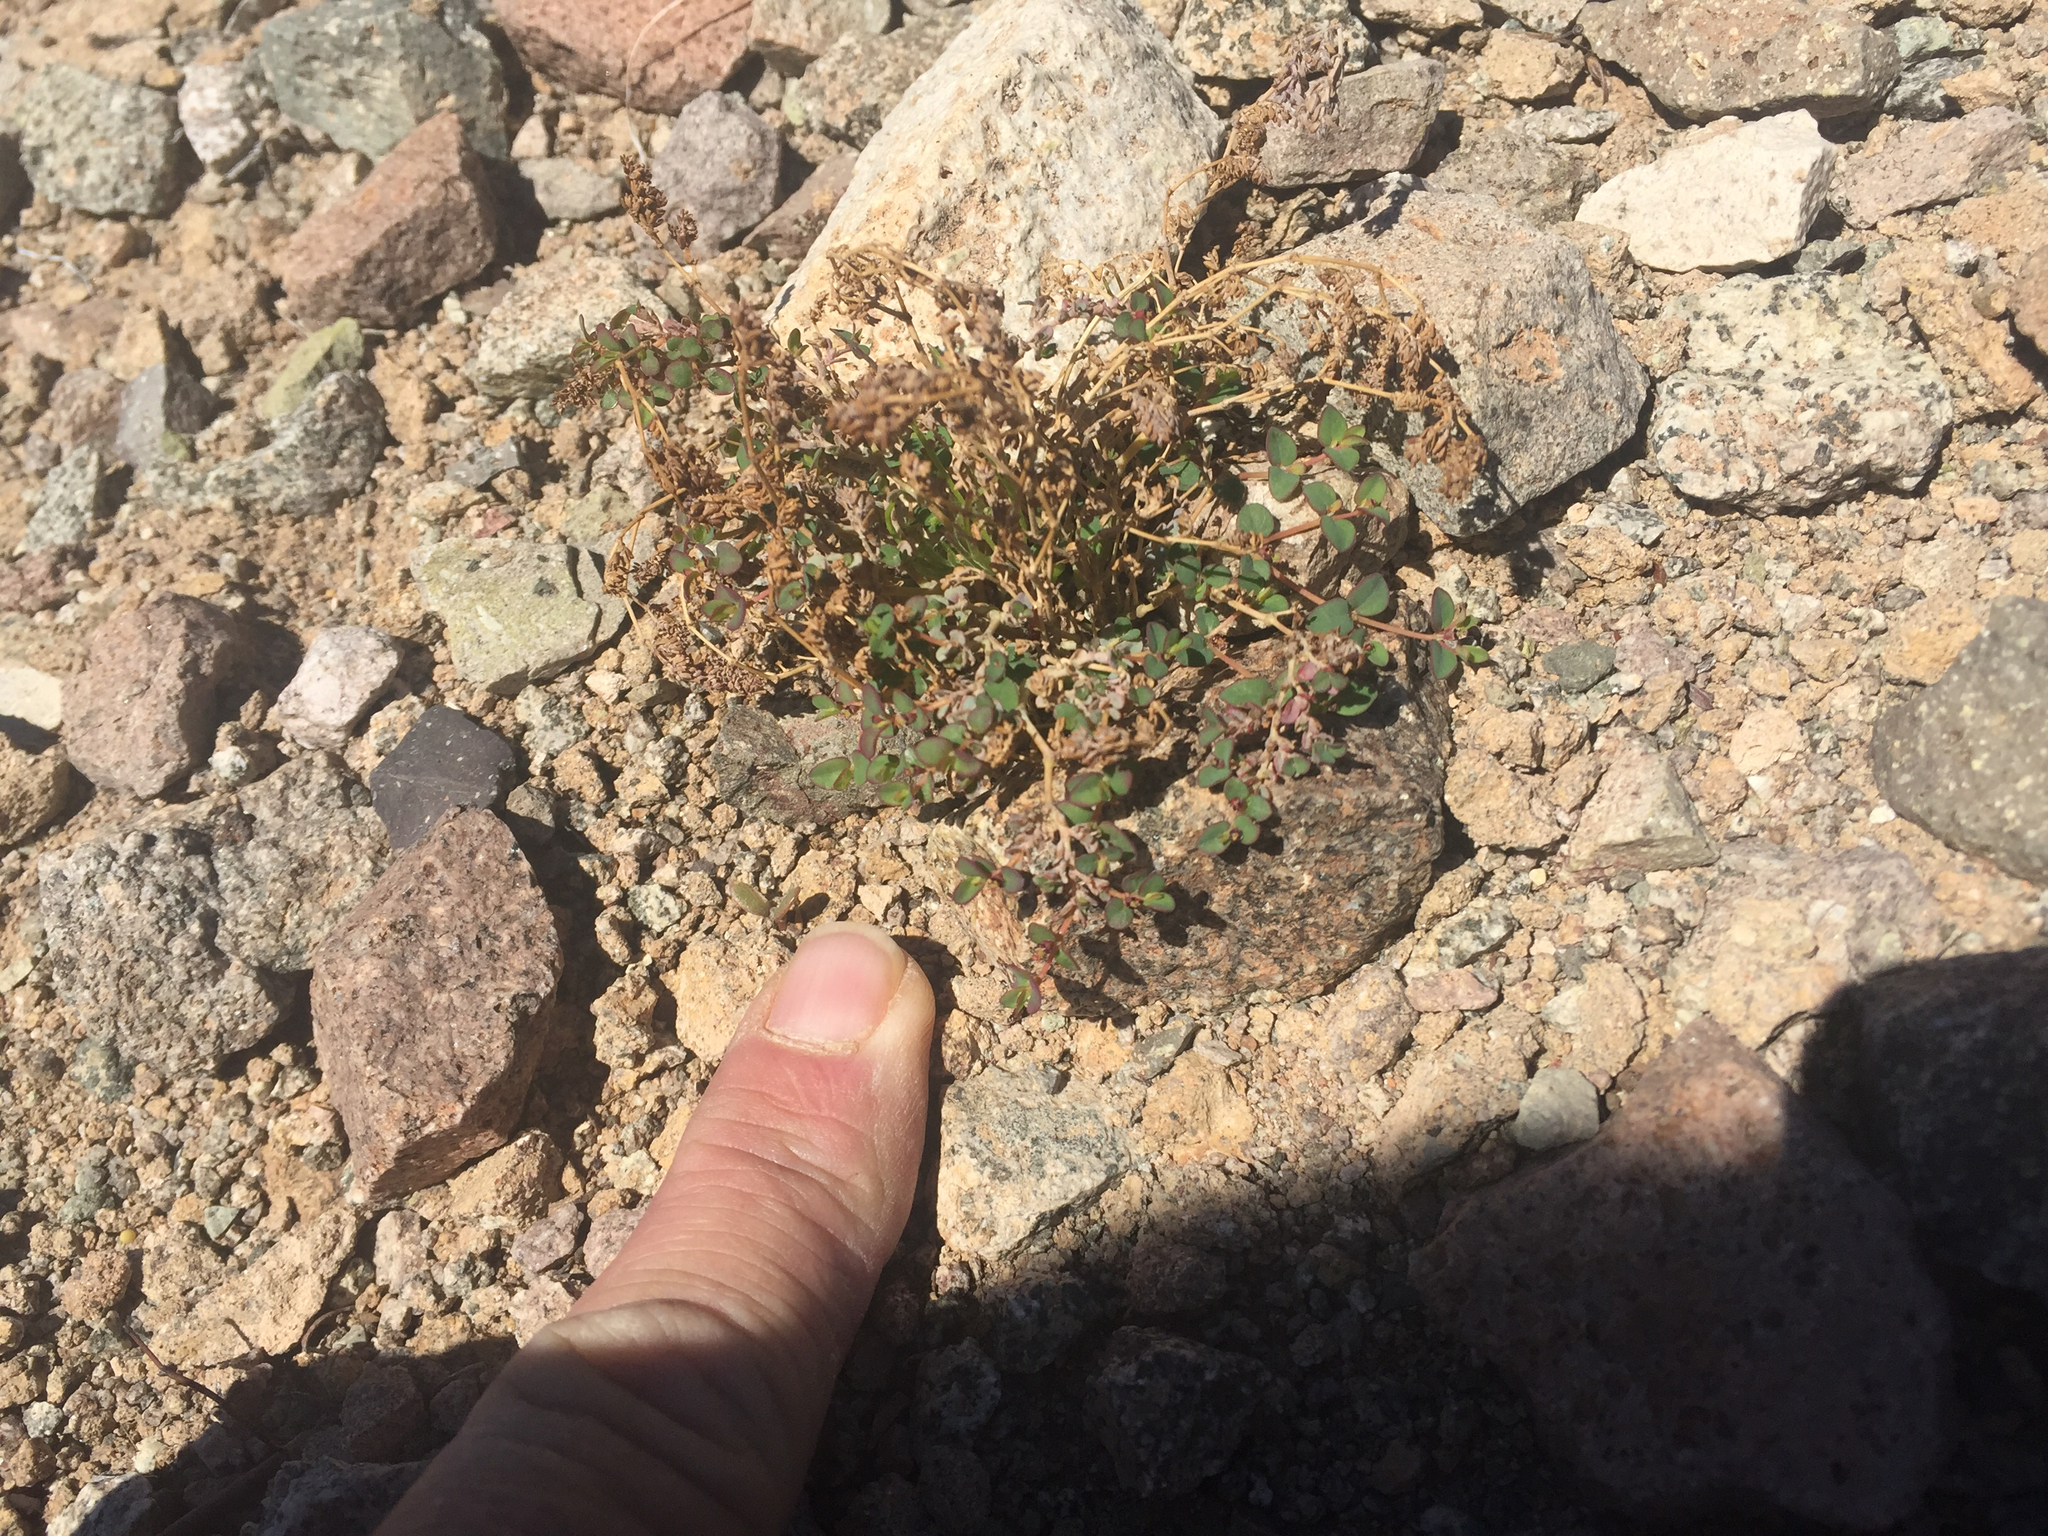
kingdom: Plantae
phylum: Tracheophyta
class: Magnoliopsida
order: Malpighiales
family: Euphorbiaceae
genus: Euphorbia
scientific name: Euphorbia polycarpa
